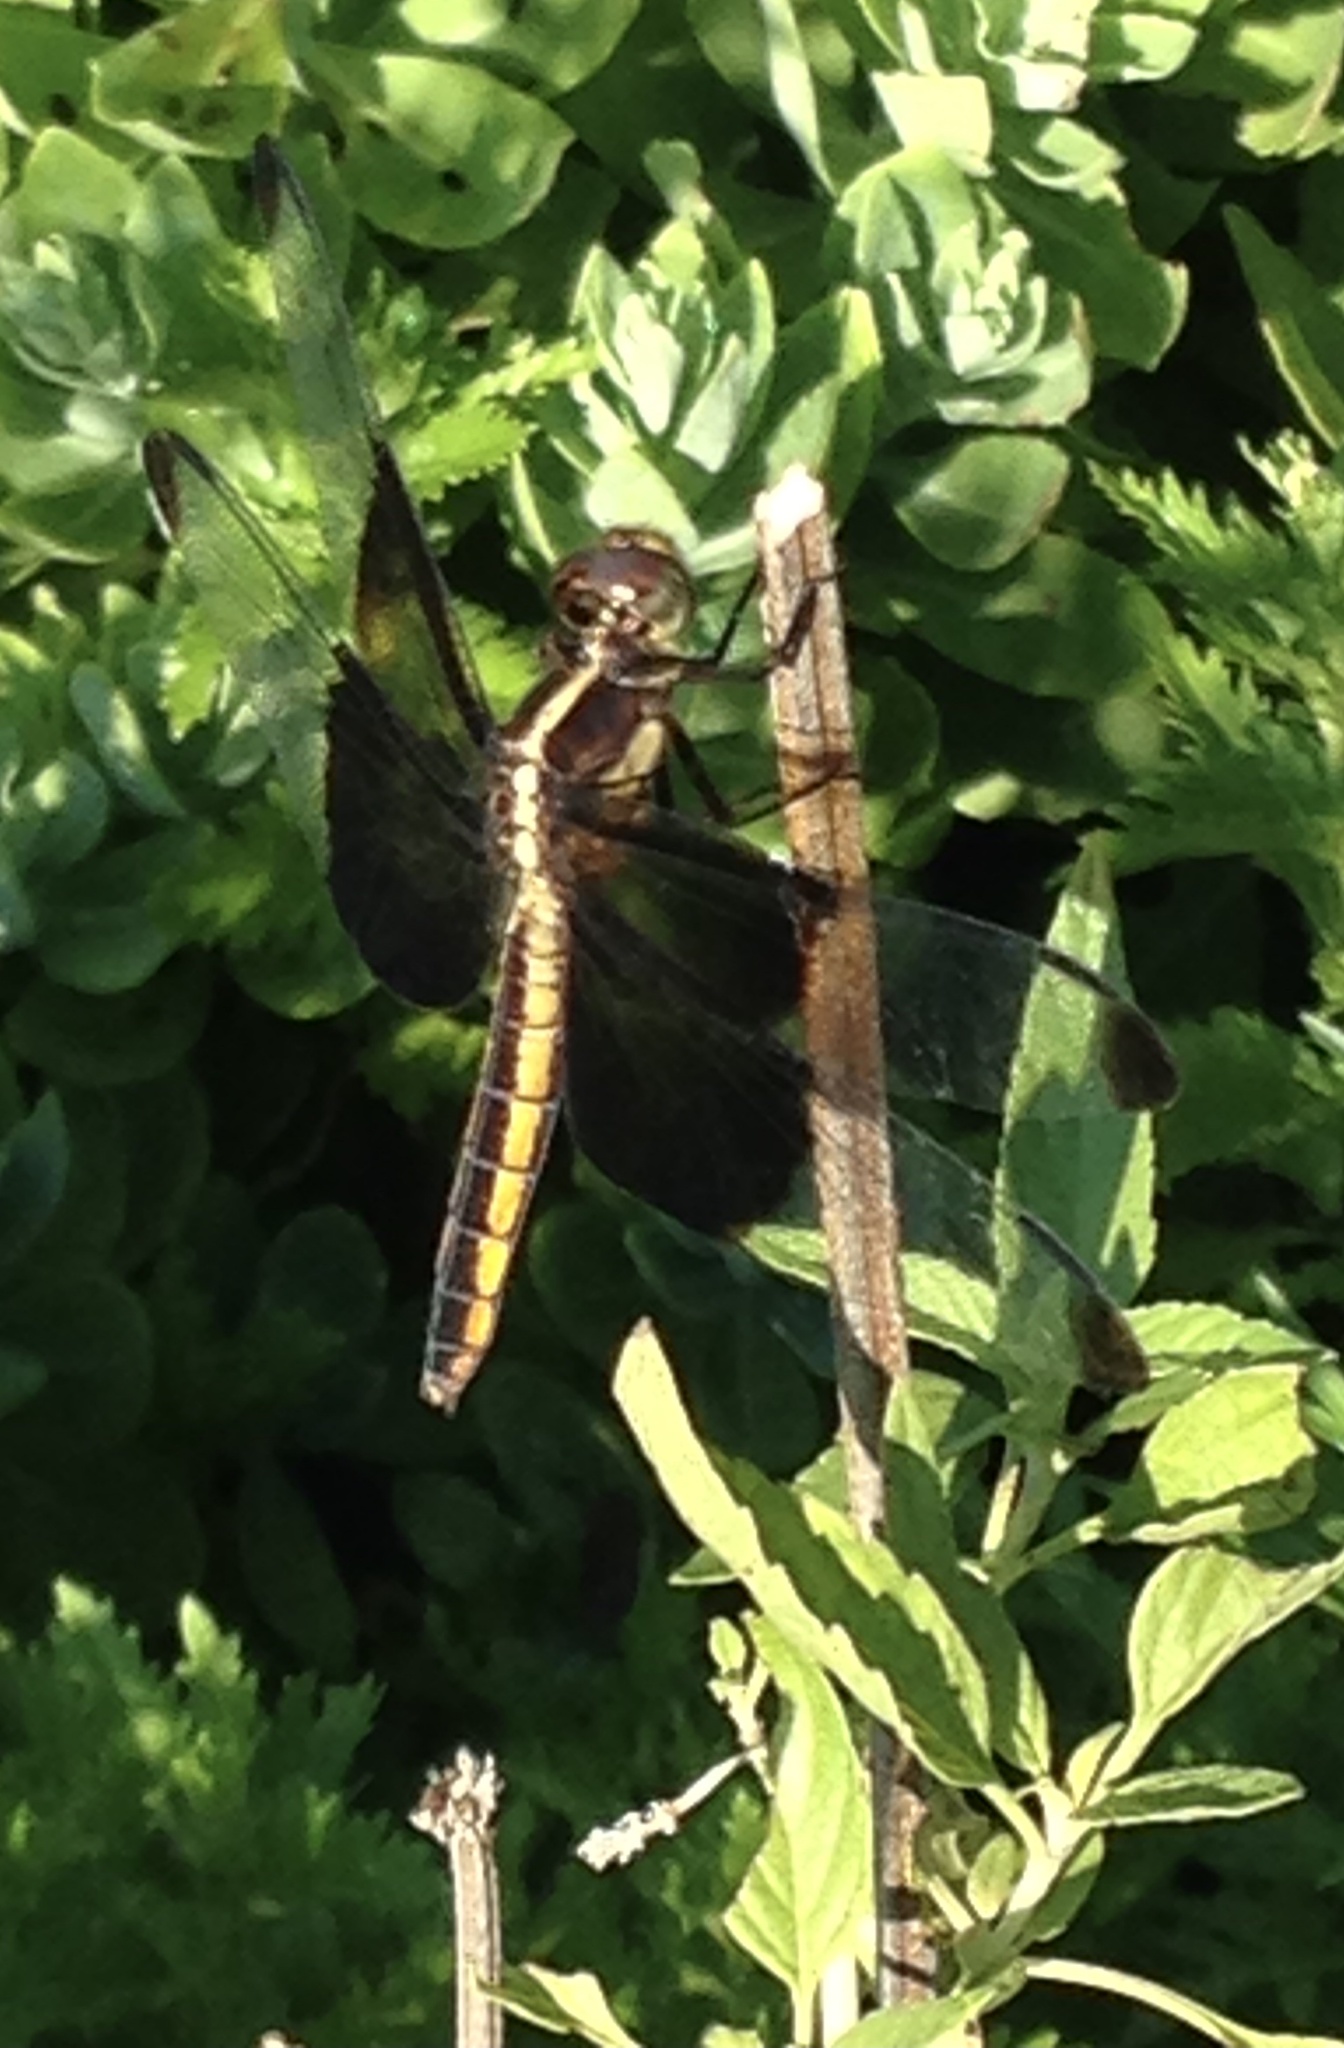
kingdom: Animalia
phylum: Arthropoda
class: Insecta
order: Odonata
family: Libellulidae
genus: Libellula
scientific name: Libellula luctuosa
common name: Widow skimmer
